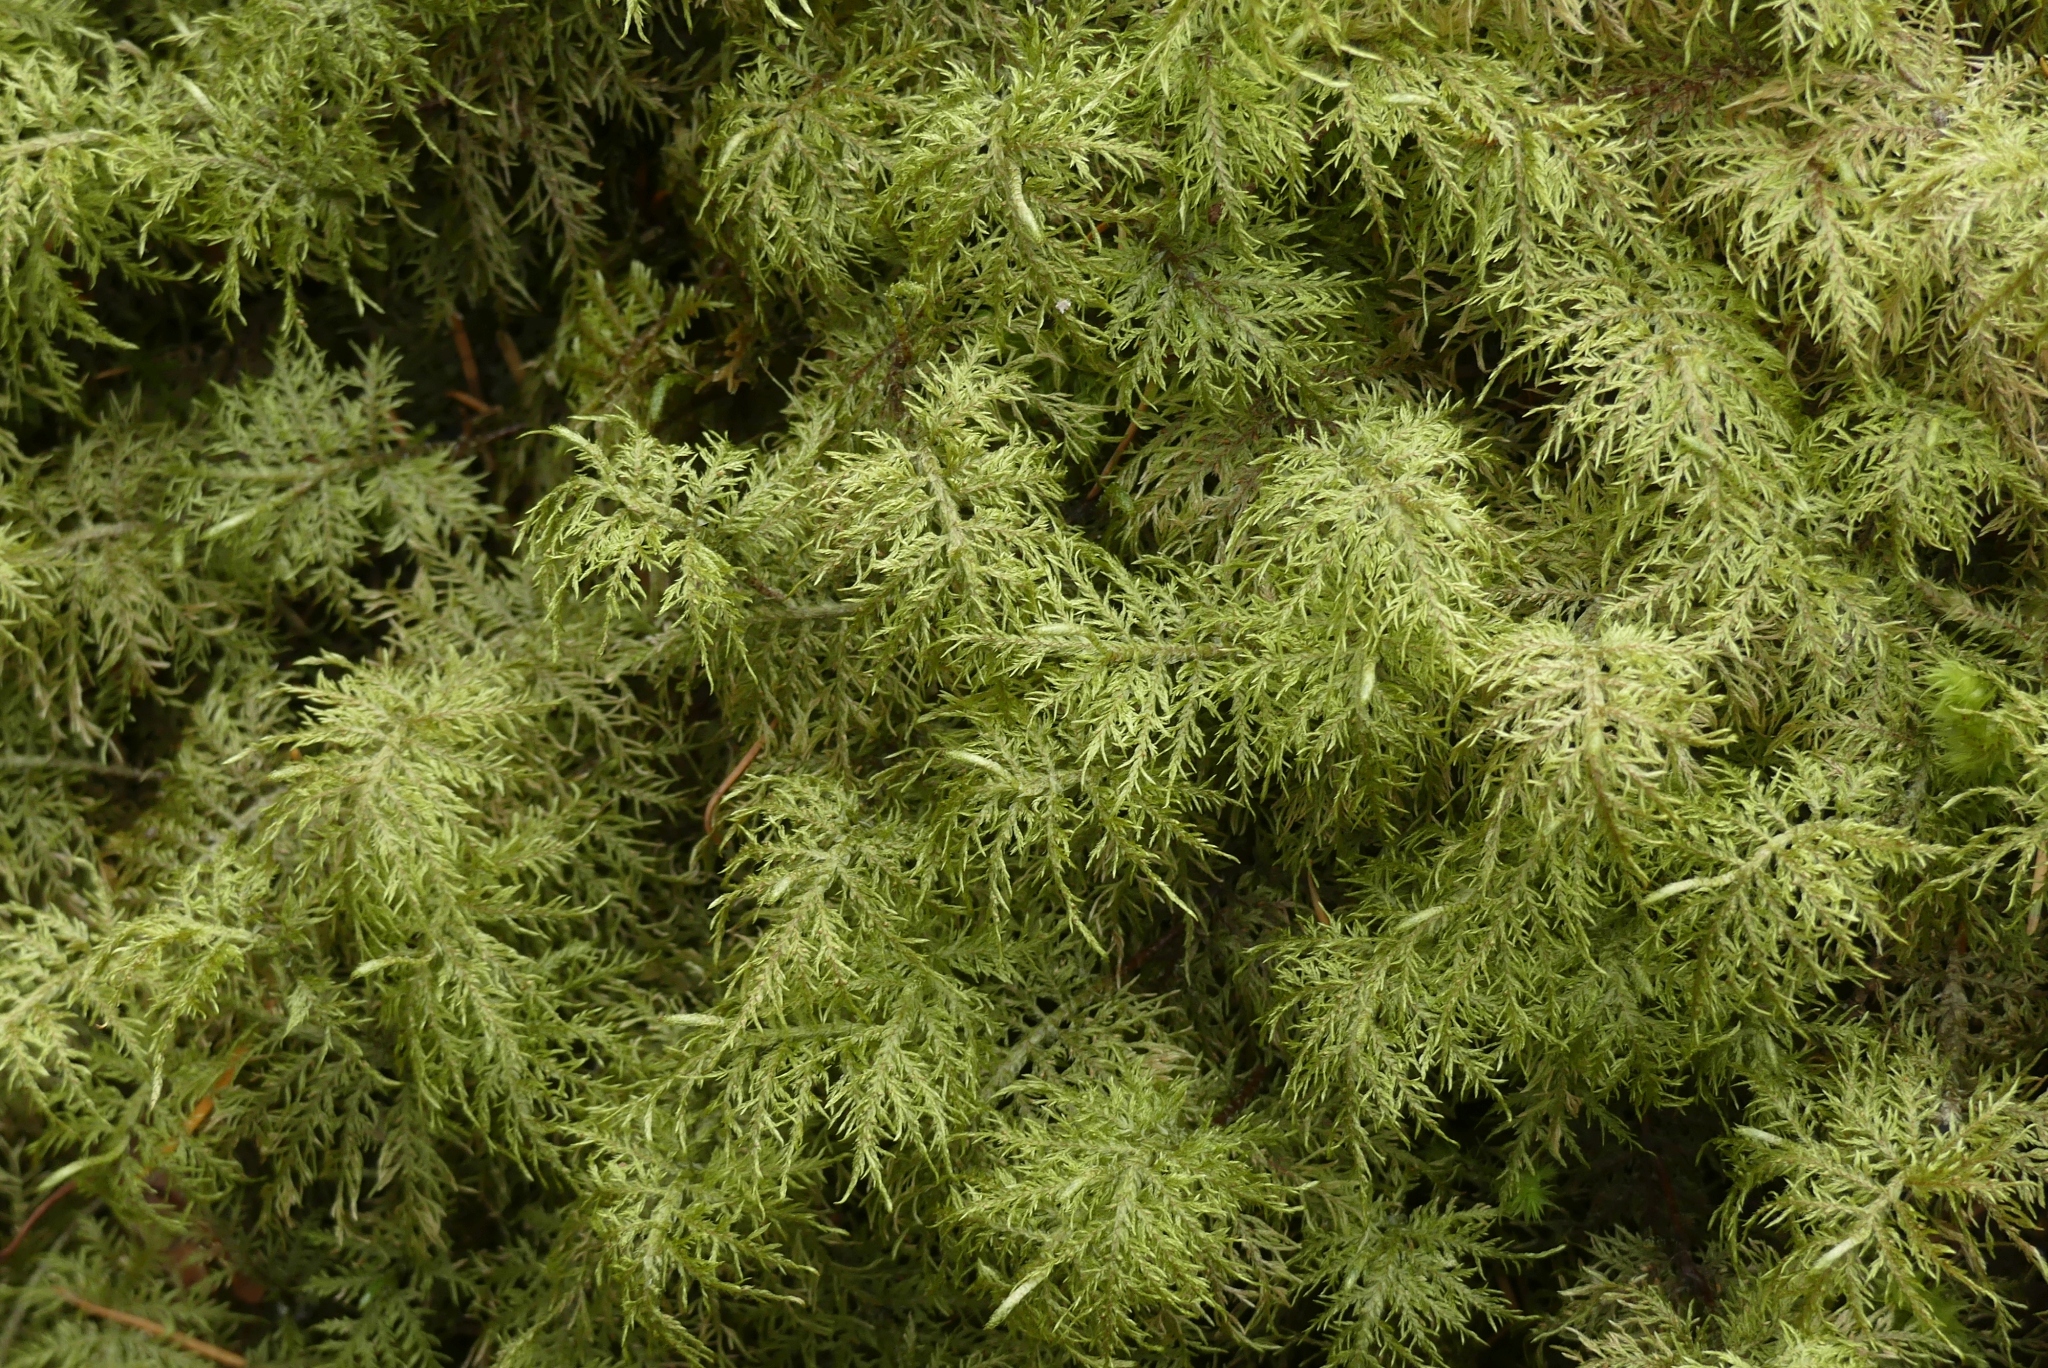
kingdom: Plantae
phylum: Bryophyta
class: Bryopsida
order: Hypnales
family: Hylocomiaceae
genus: Hylocomium
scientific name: Hylocomium splendens
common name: Stairstep moss
